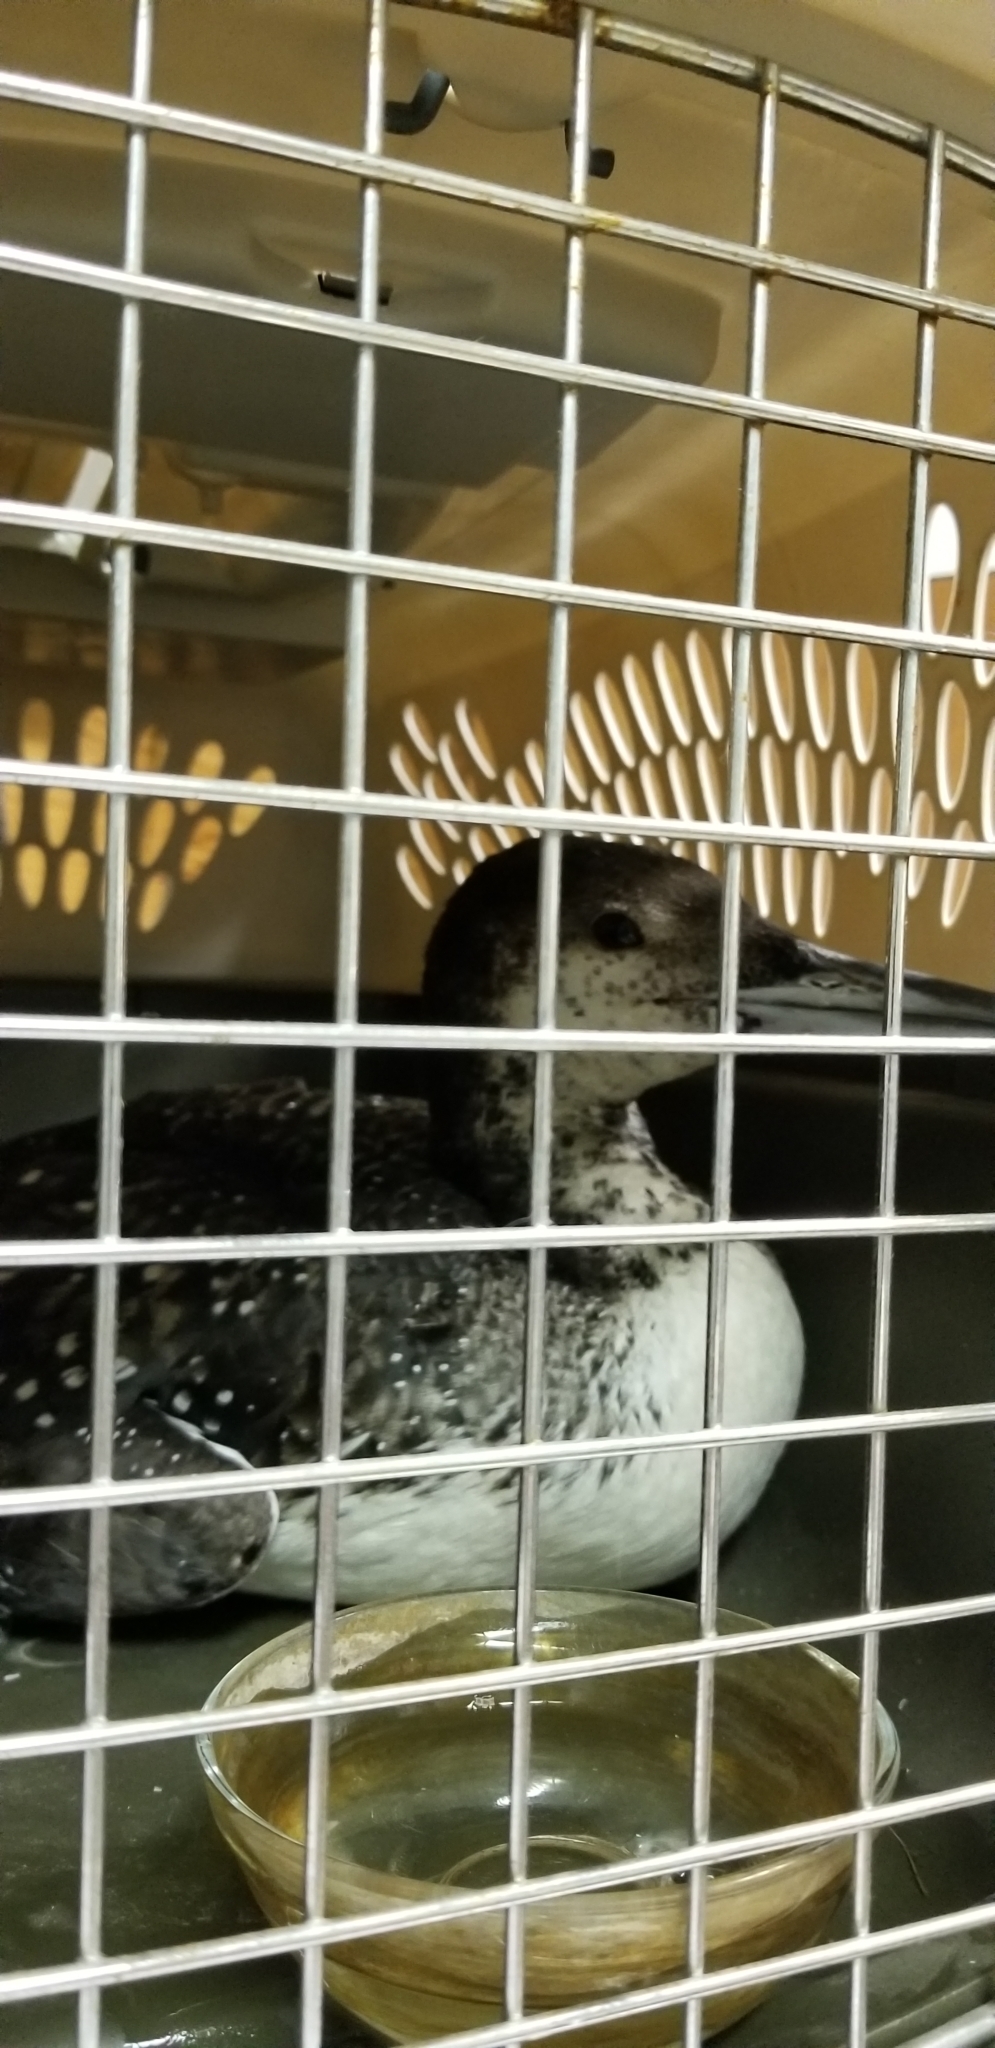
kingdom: Animalia
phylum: Chordata
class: Aves
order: Gaviiformes
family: Gaviidae
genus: Gavia
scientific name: Gavia immer
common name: Common loon
